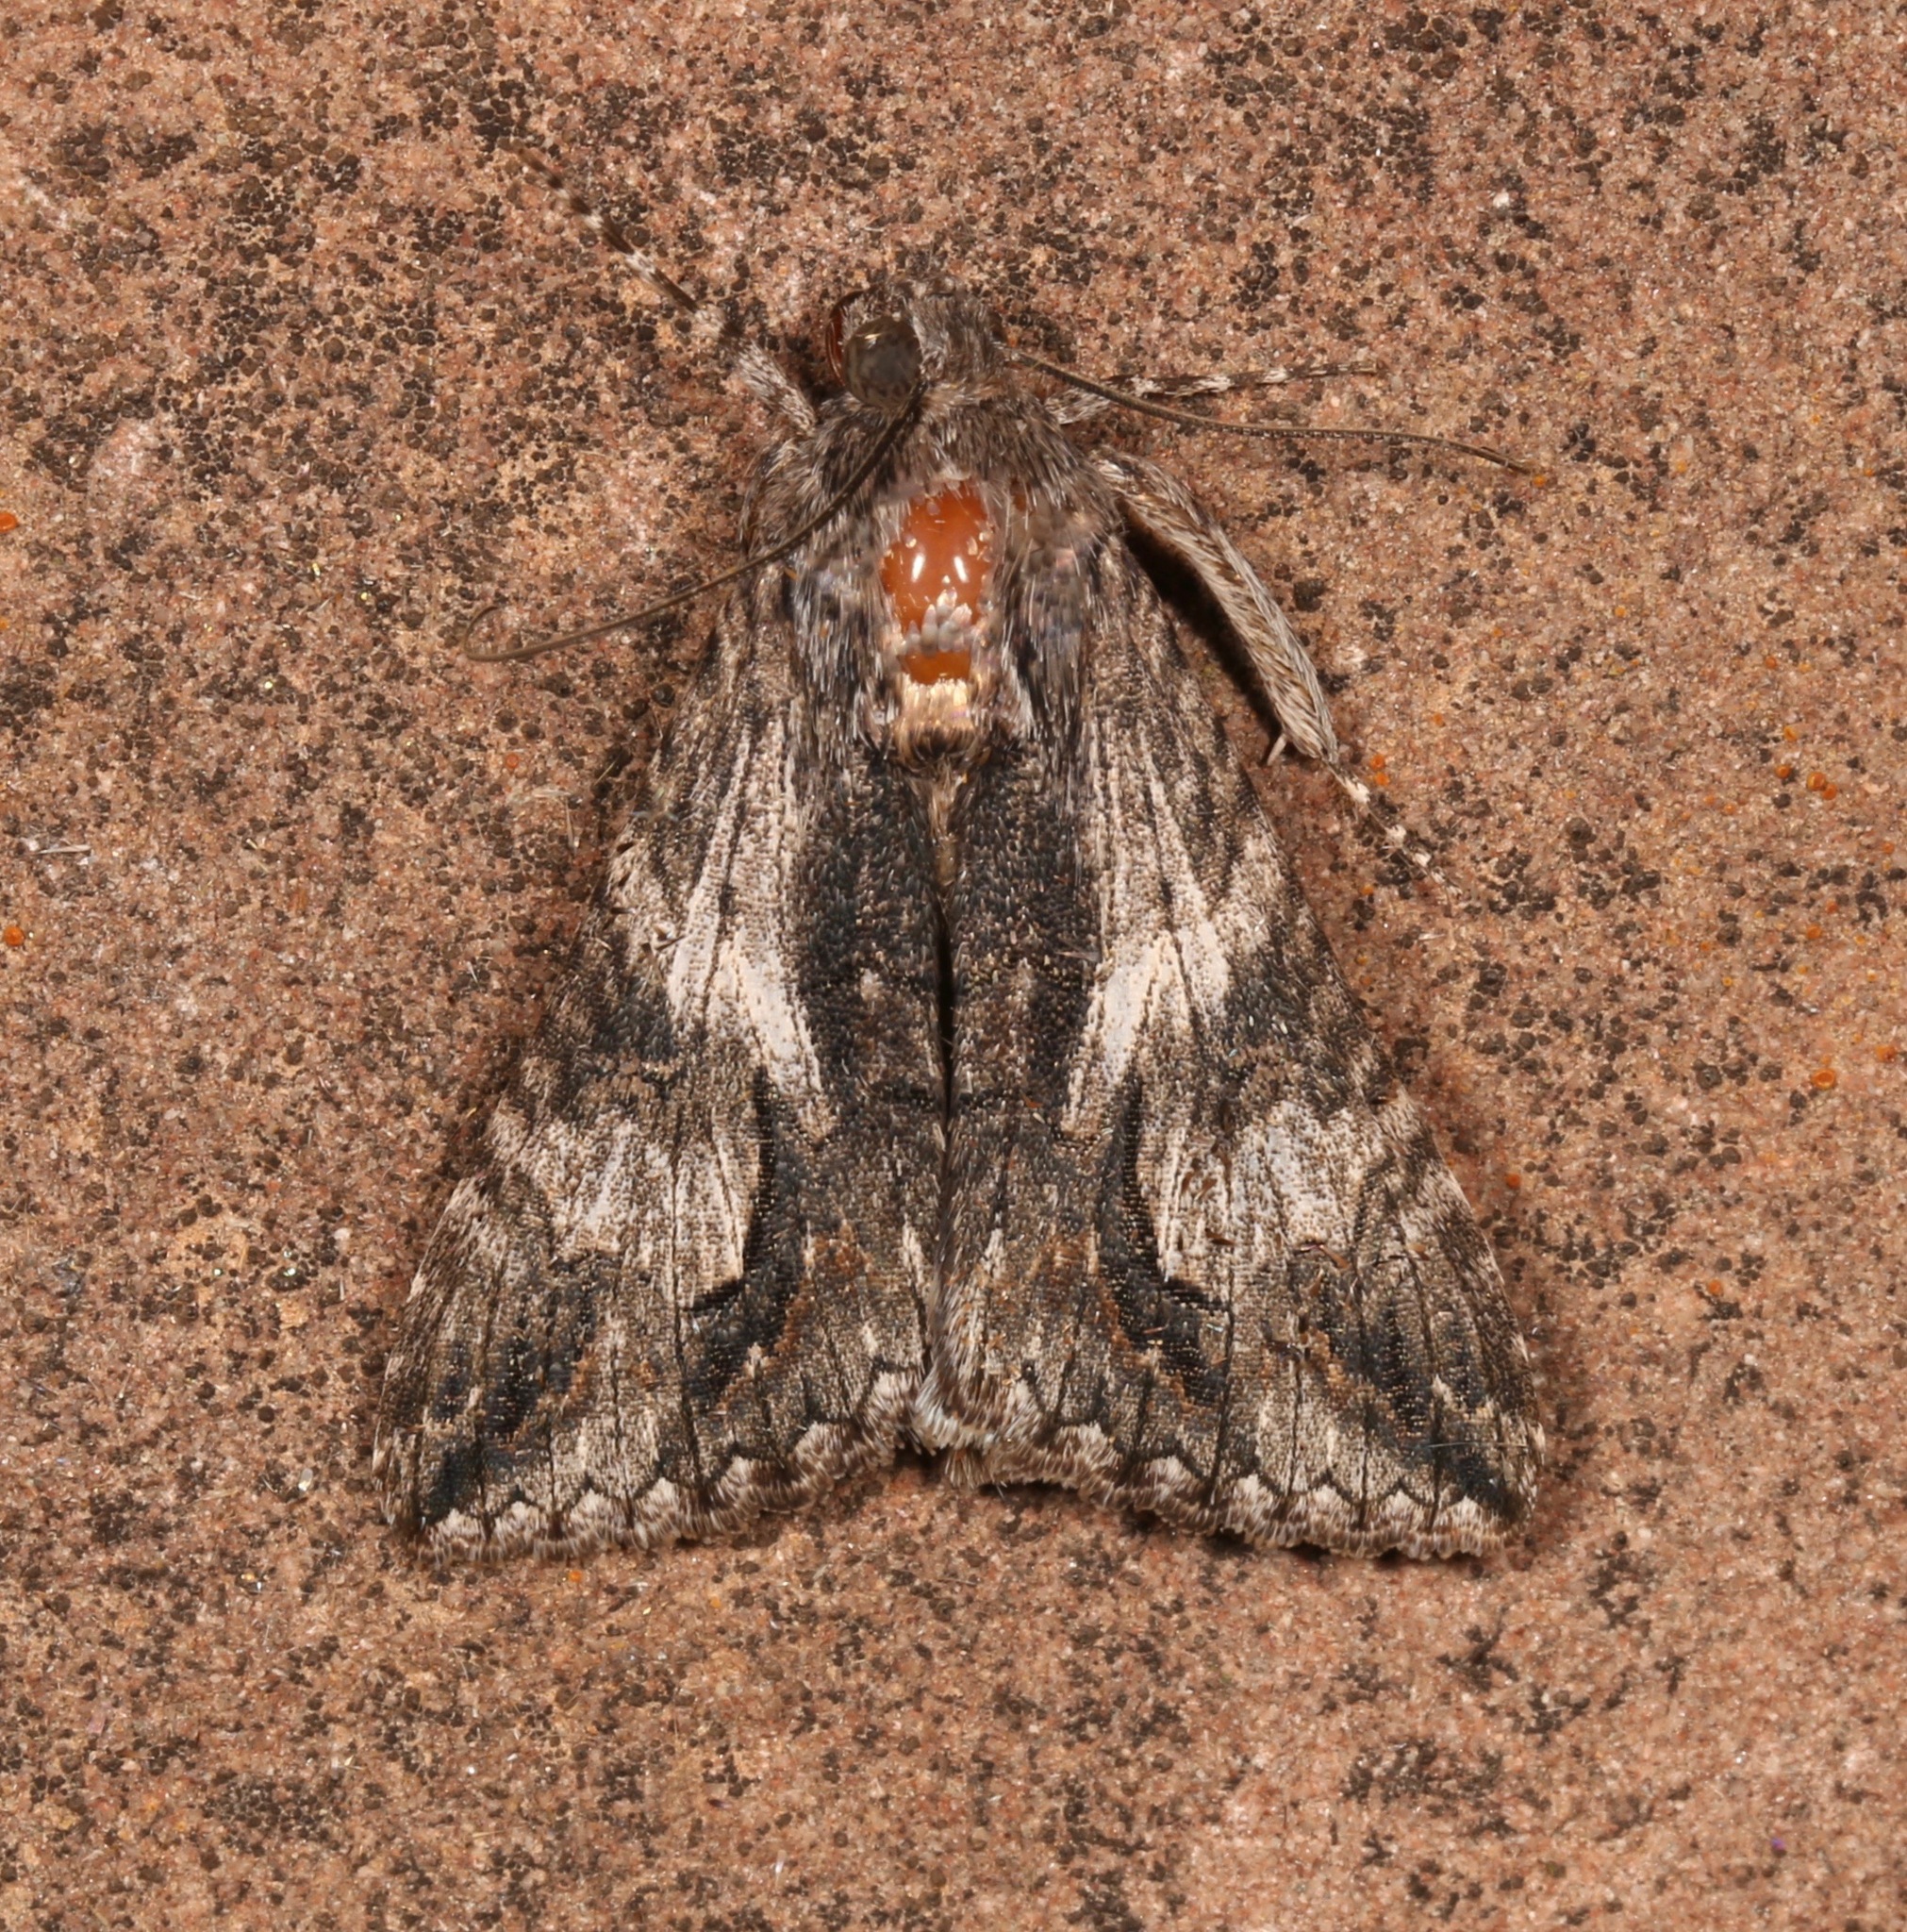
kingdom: Animalia
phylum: Arthropoda
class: Insecta
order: Lepidoptera
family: Erebidae
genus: Melipotis
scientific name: Melipotis jucunda
